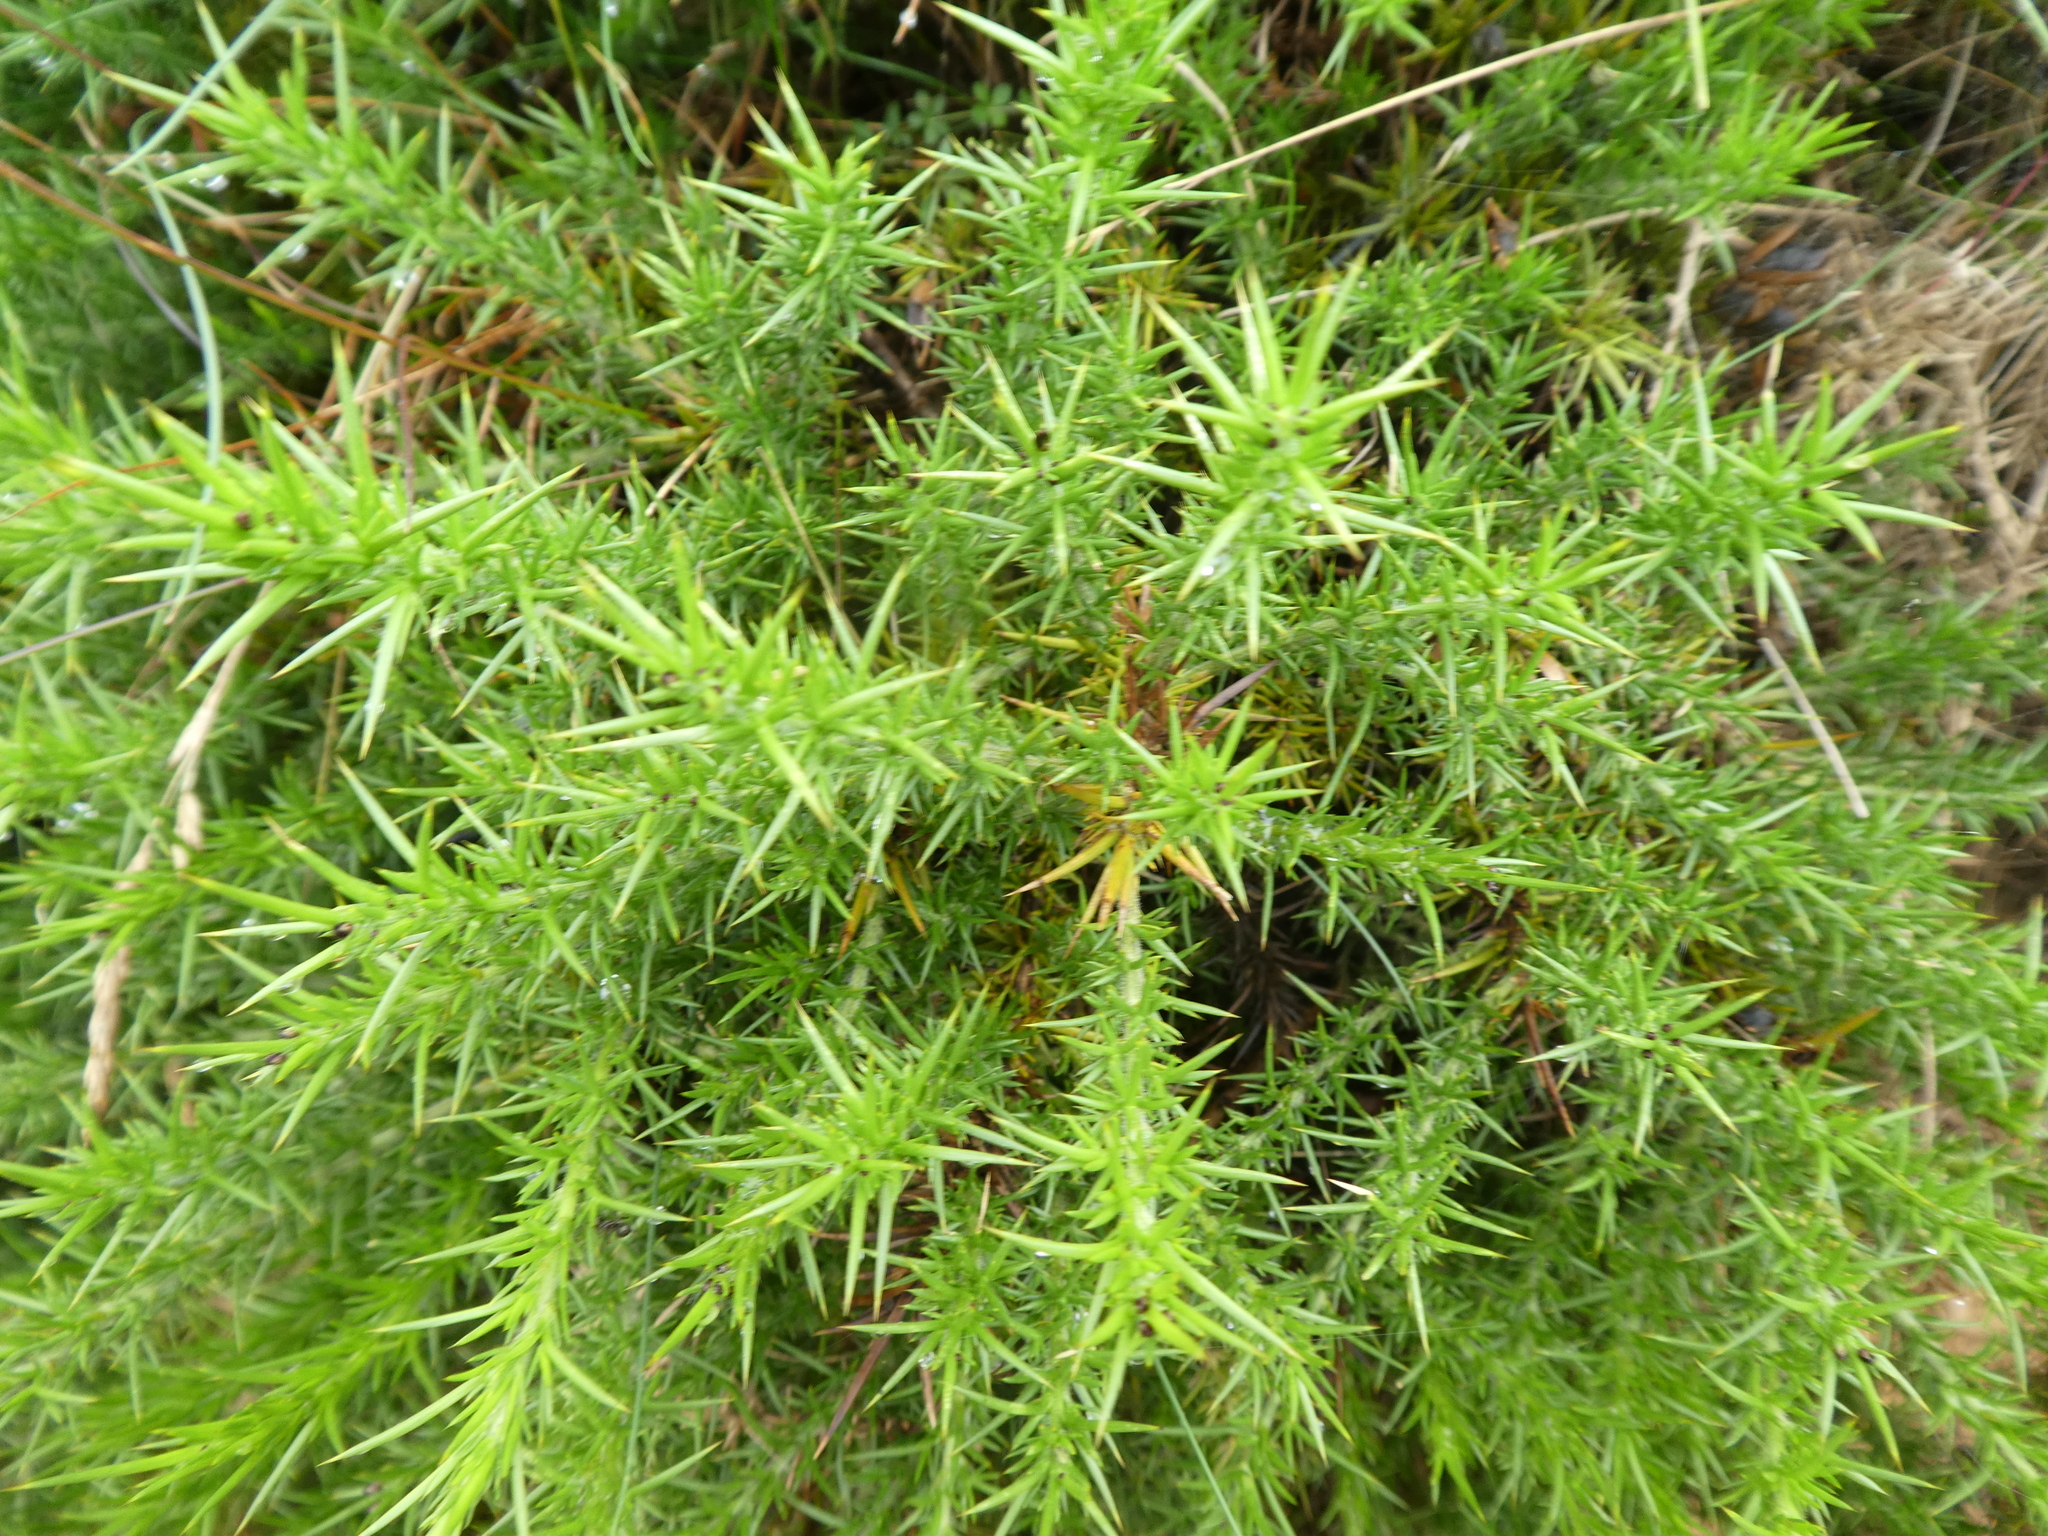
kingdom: Plantae
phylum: Tracheophyta
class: Magnoliopsida
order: Fabales
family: Fabaceae
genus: Ulex
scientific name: Ulex europaeus
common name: Common gorse
